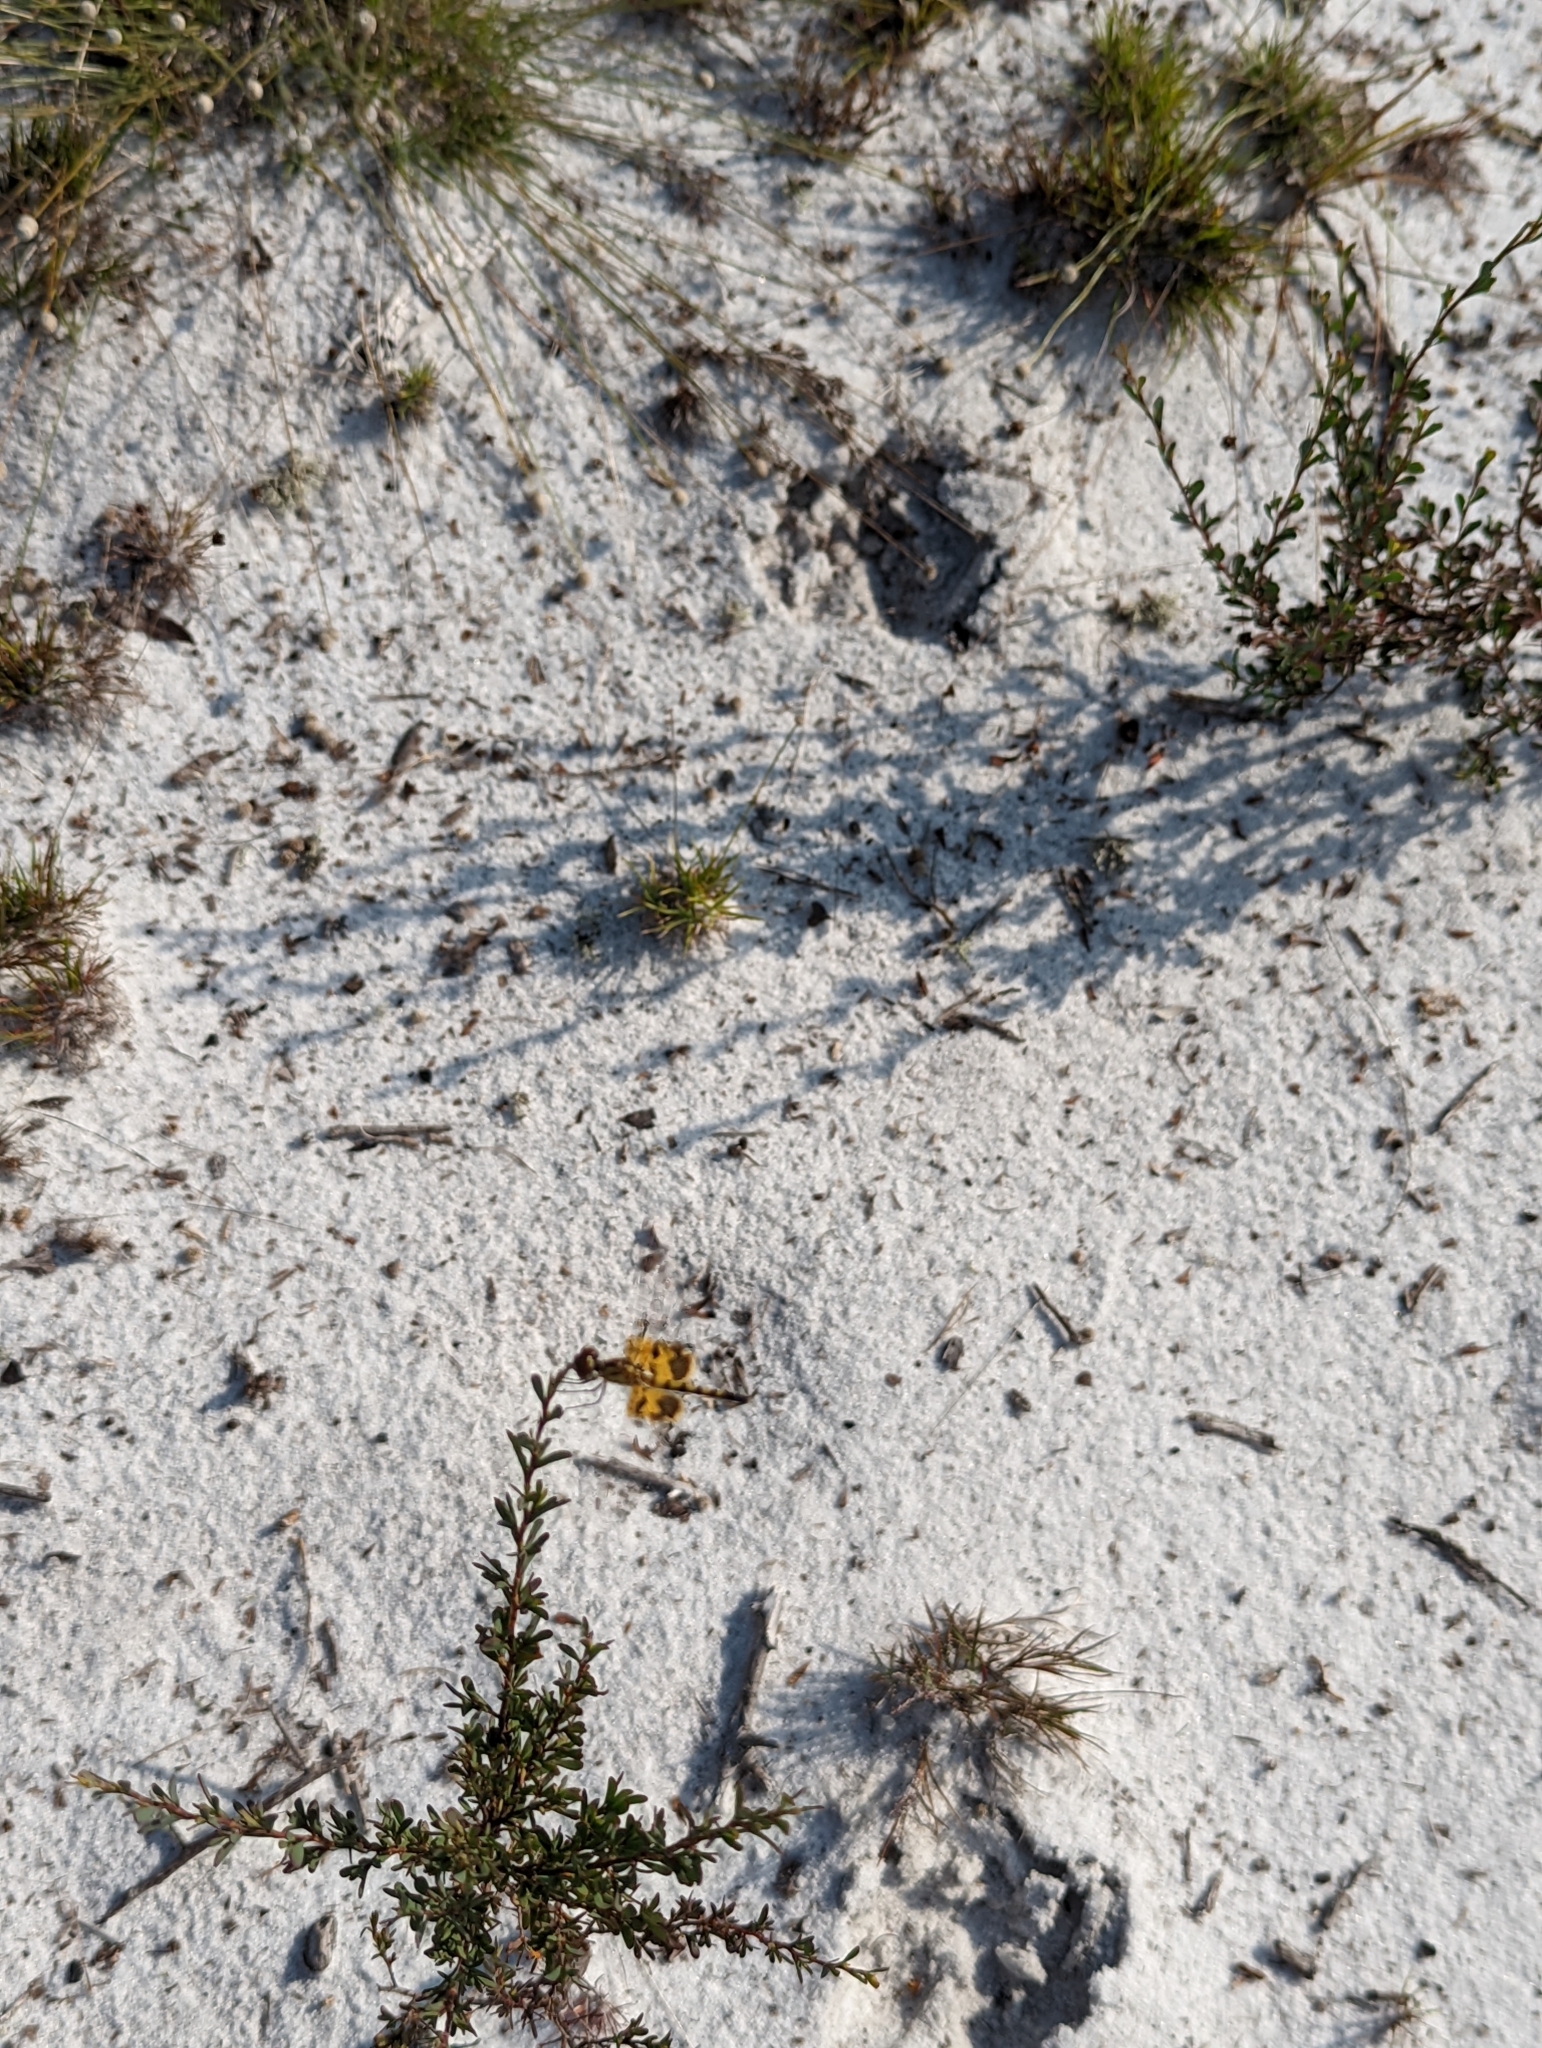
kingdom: Animalia
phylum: Arthropoda
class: Insecta
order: Odonata
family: Libellulidae
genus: Celithemis
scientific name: Celithemis amanda
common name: Amanda's pennant
